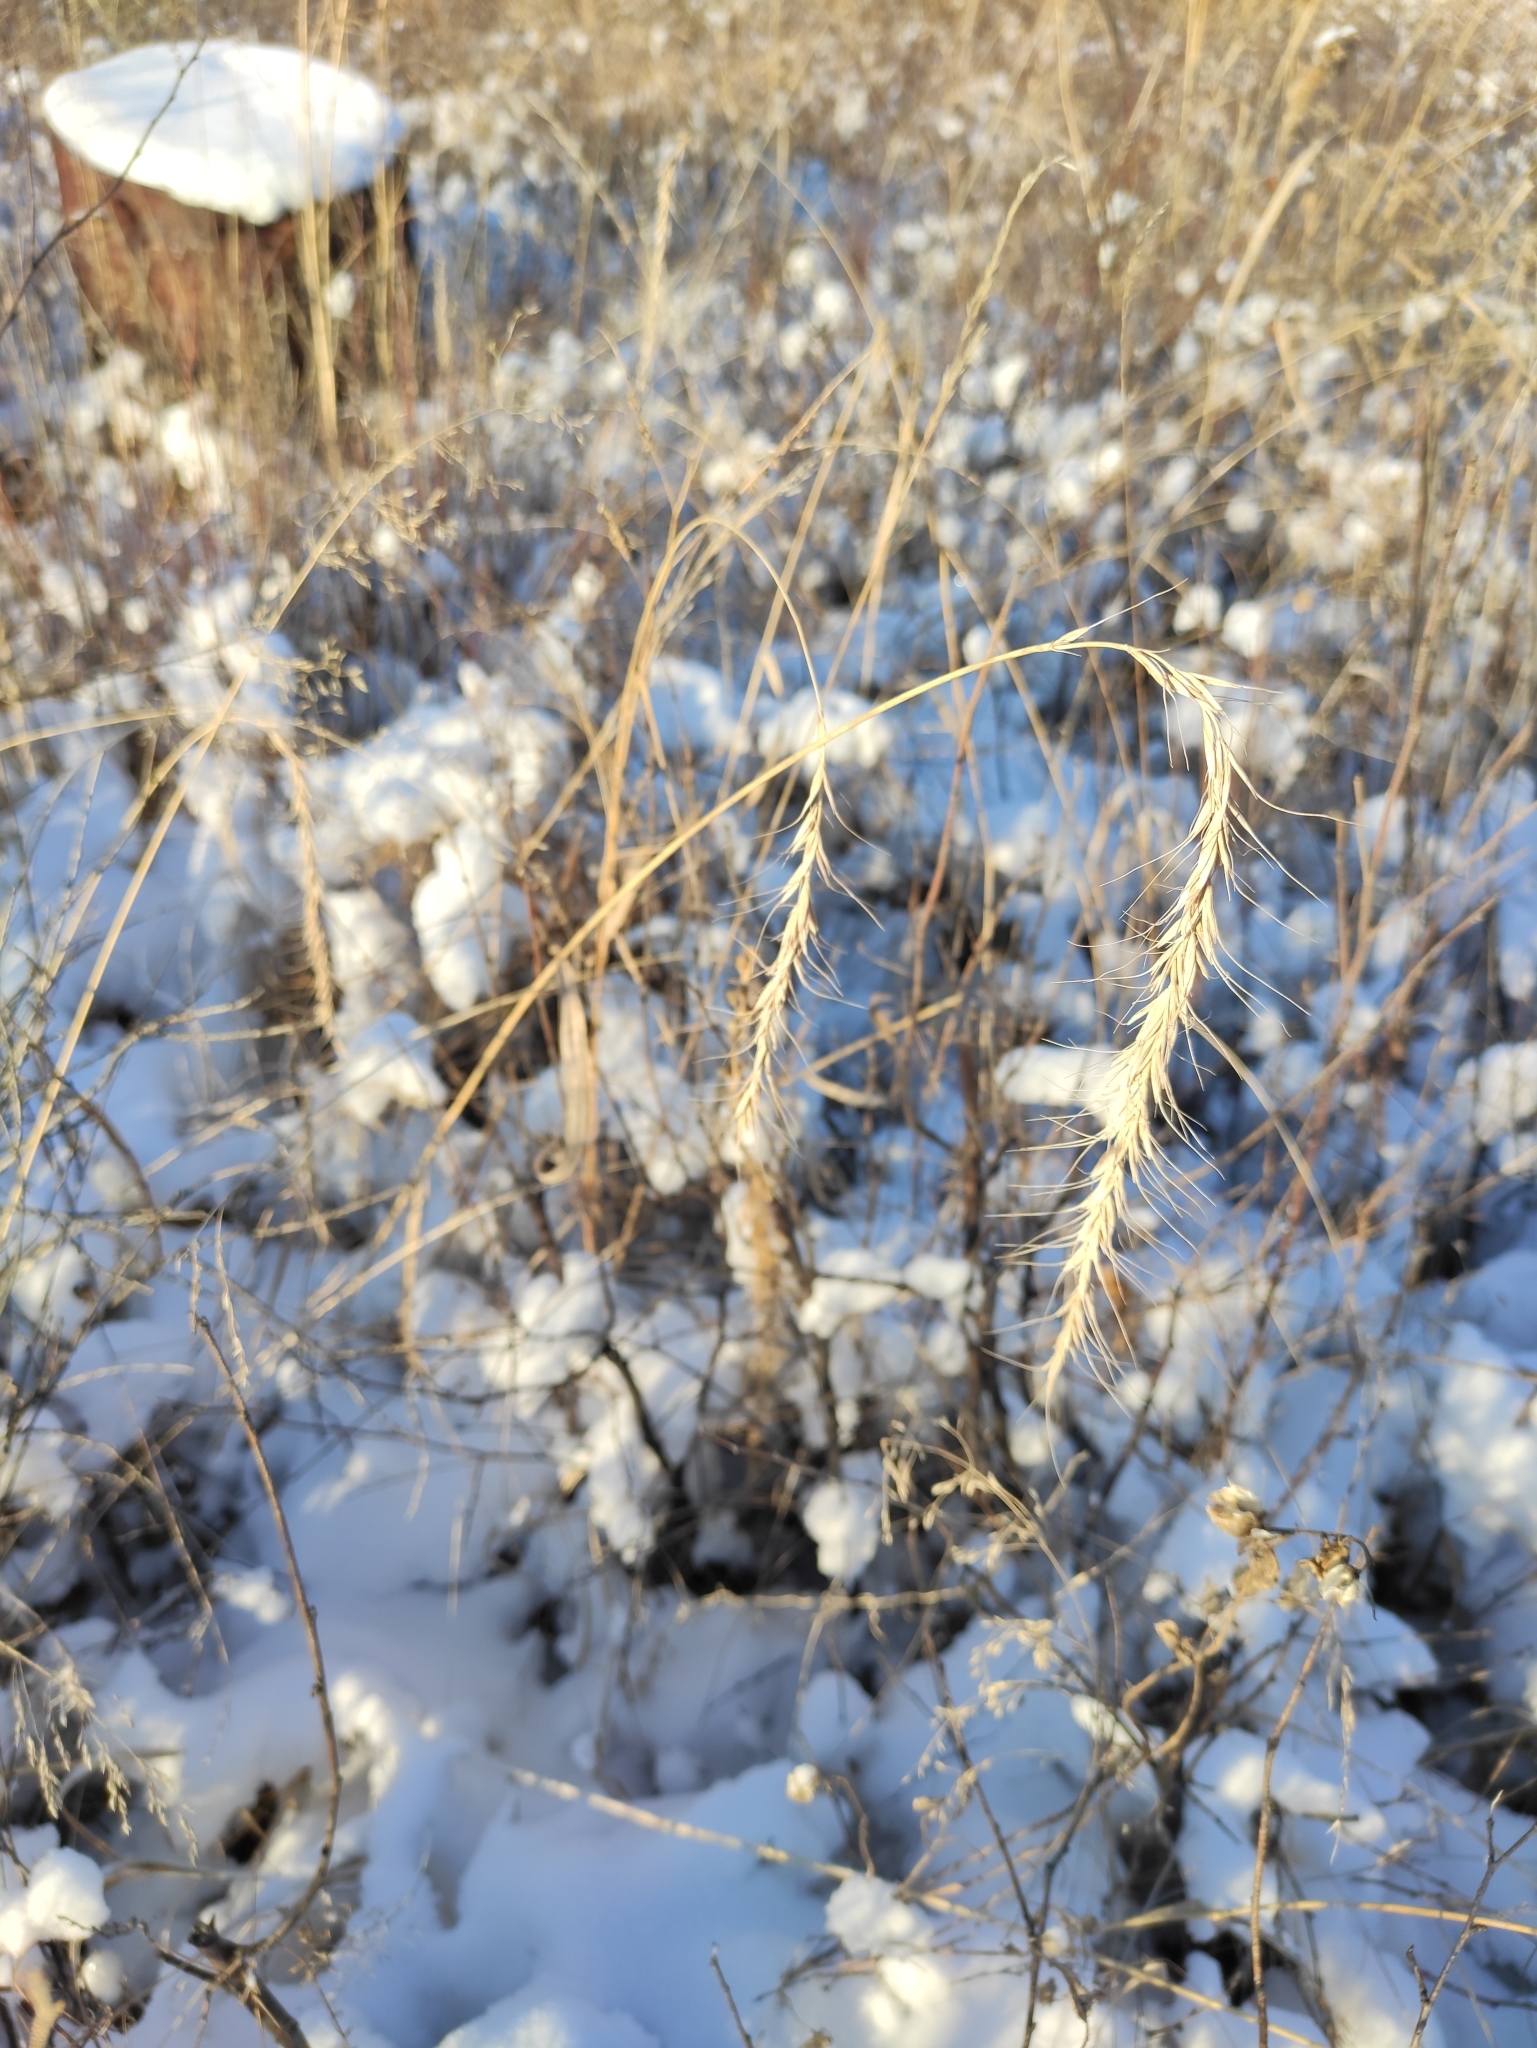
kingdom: Plantae
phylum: Tracheophyta
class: Liliopsida
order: Poales
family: Poaceae
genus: Elymus
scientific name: Elymus sibiricus
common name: Siberian wildrye
